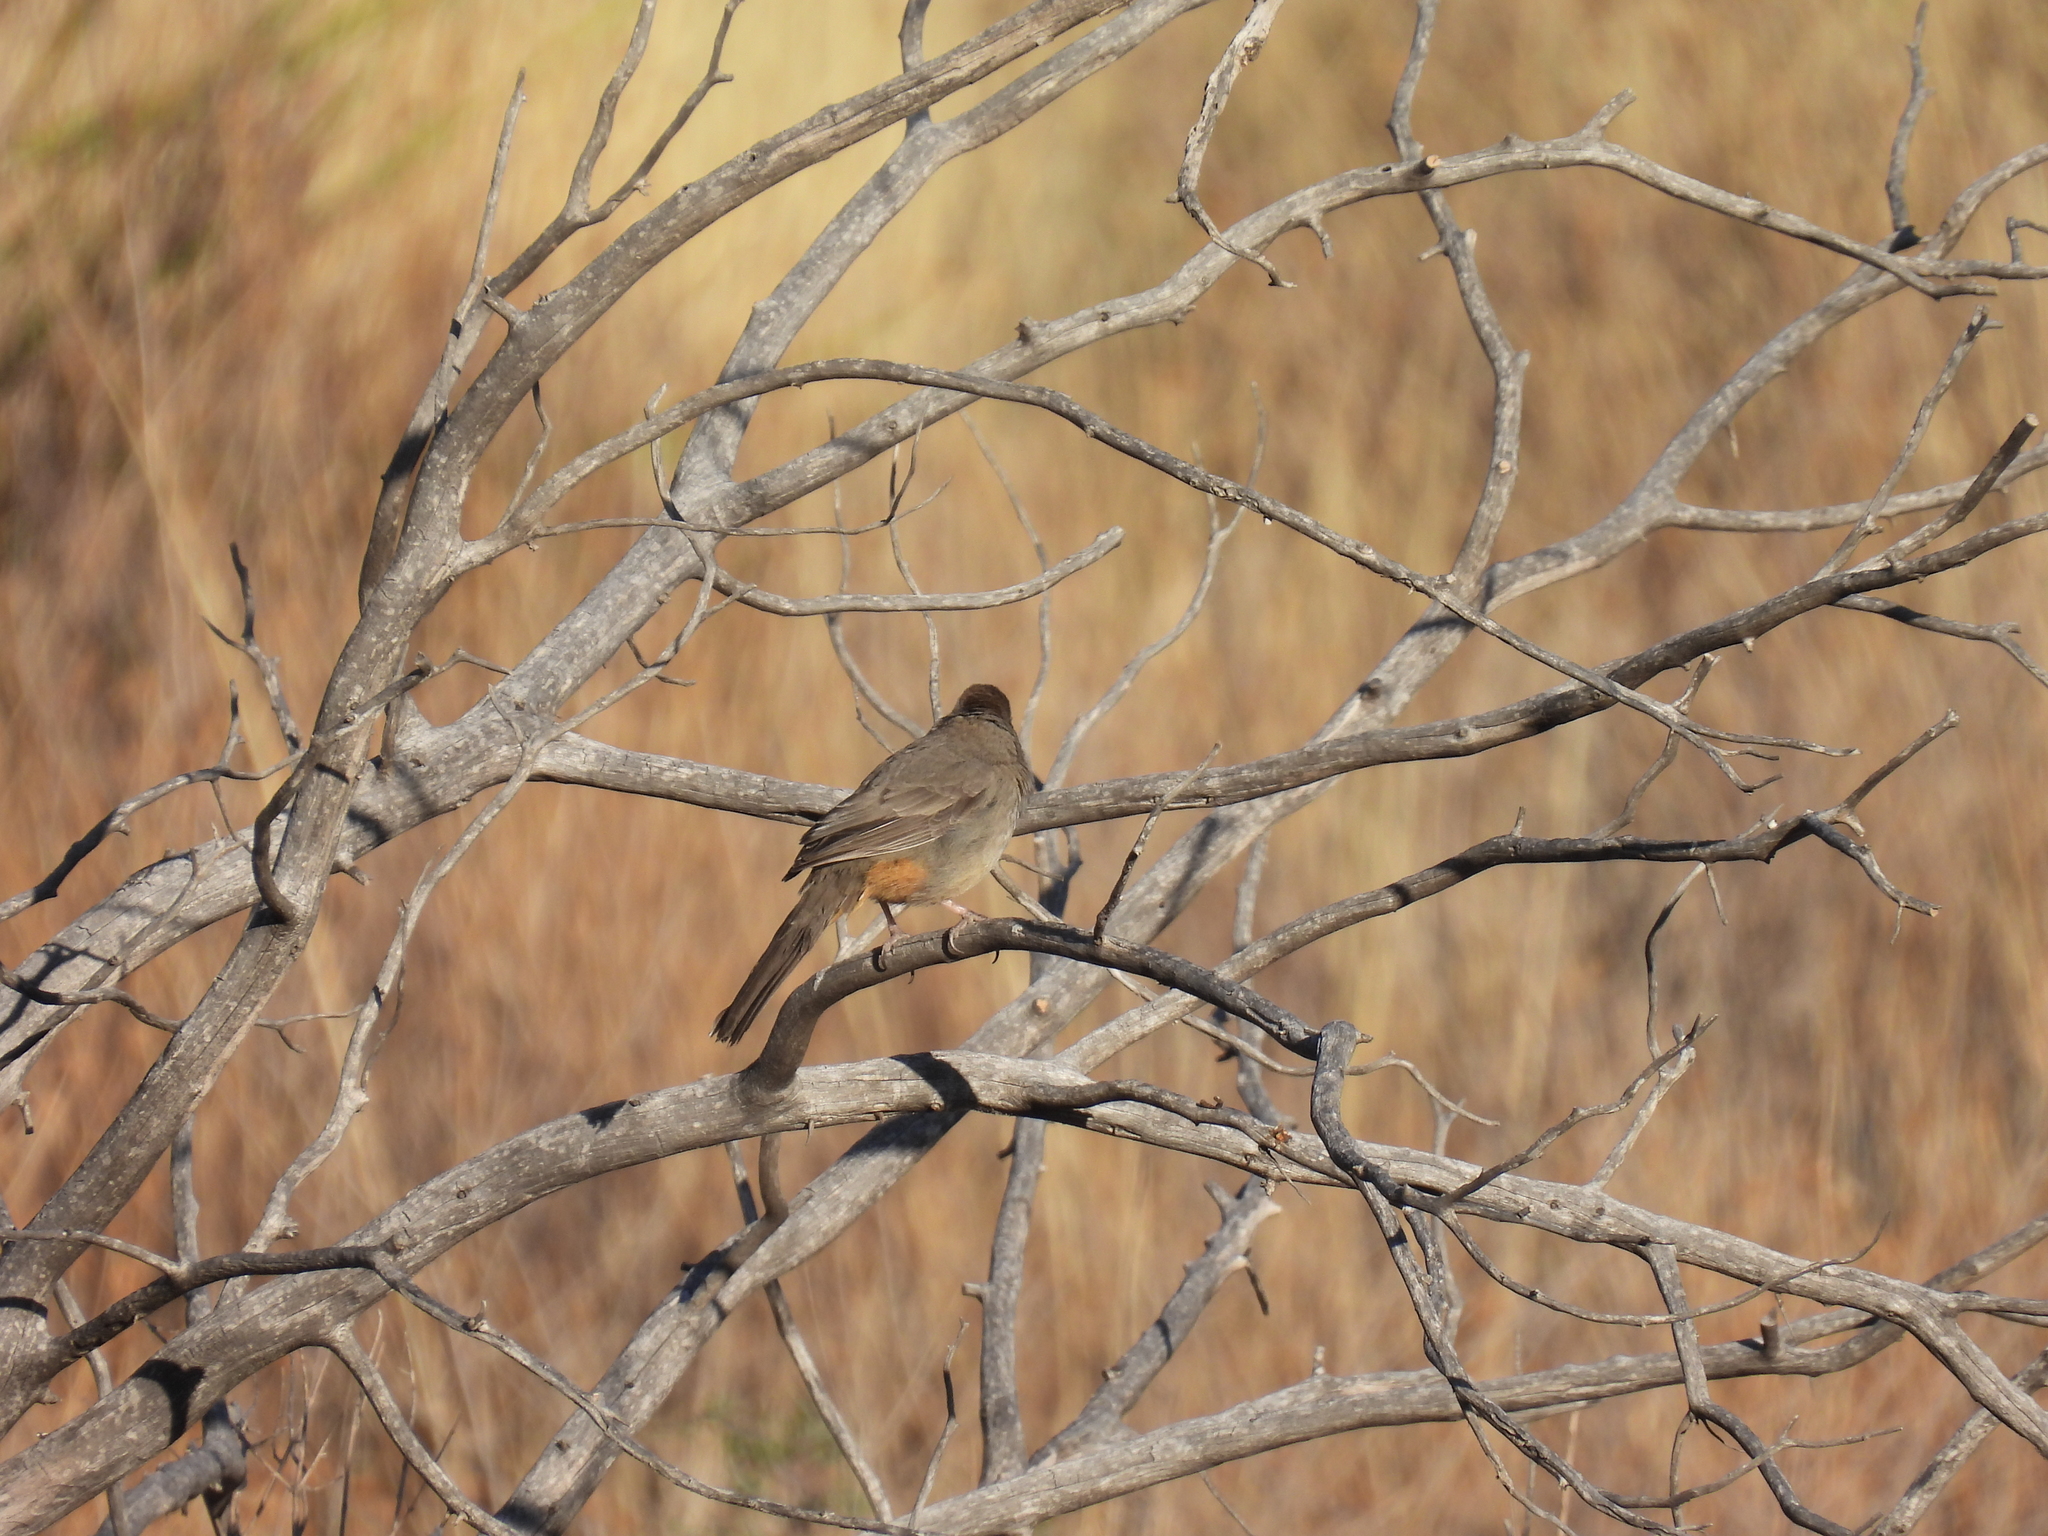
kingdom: Animalia
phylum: Chordata
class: Aves
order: Passeriformes
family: Passerellidae
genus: Melozone
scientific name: Melozone fusca
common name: Canyon towhee
